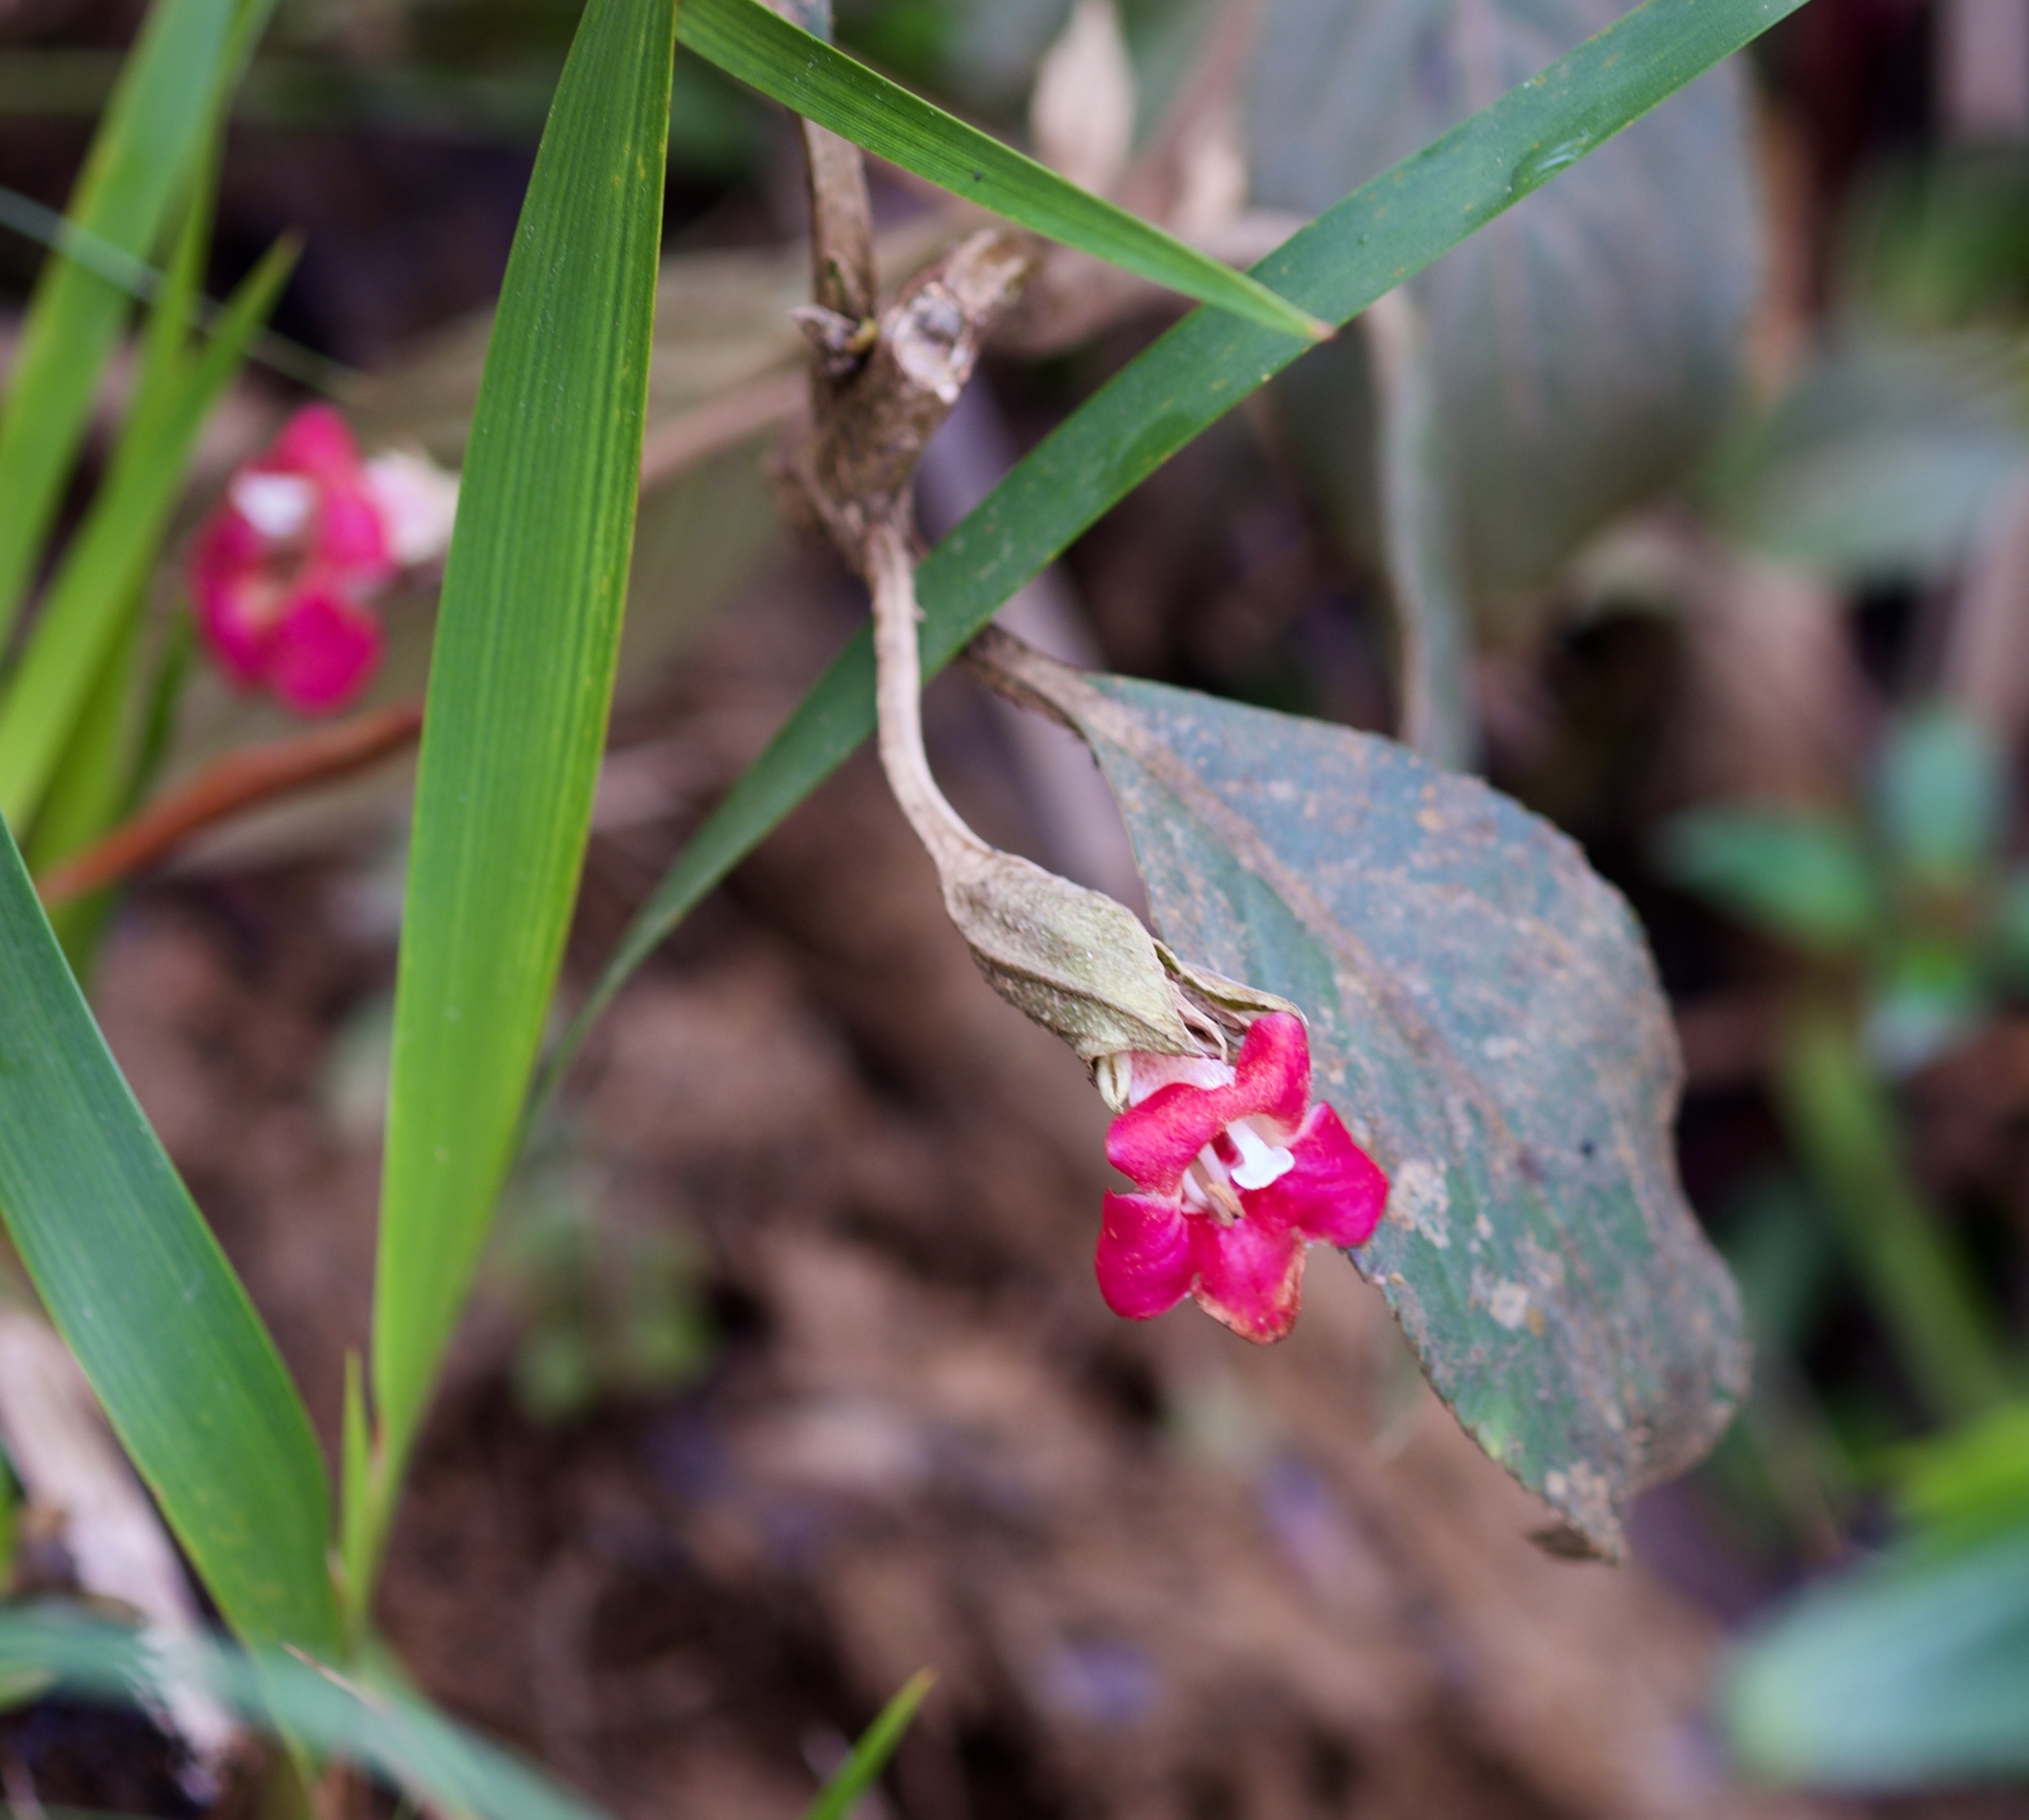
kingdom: Plantae
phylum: Tracheophyta
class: Magnoliopsida
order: Lamiales
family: Gesneriaceae
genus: Cyrtandra
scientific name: Cyrtandra clarkei
